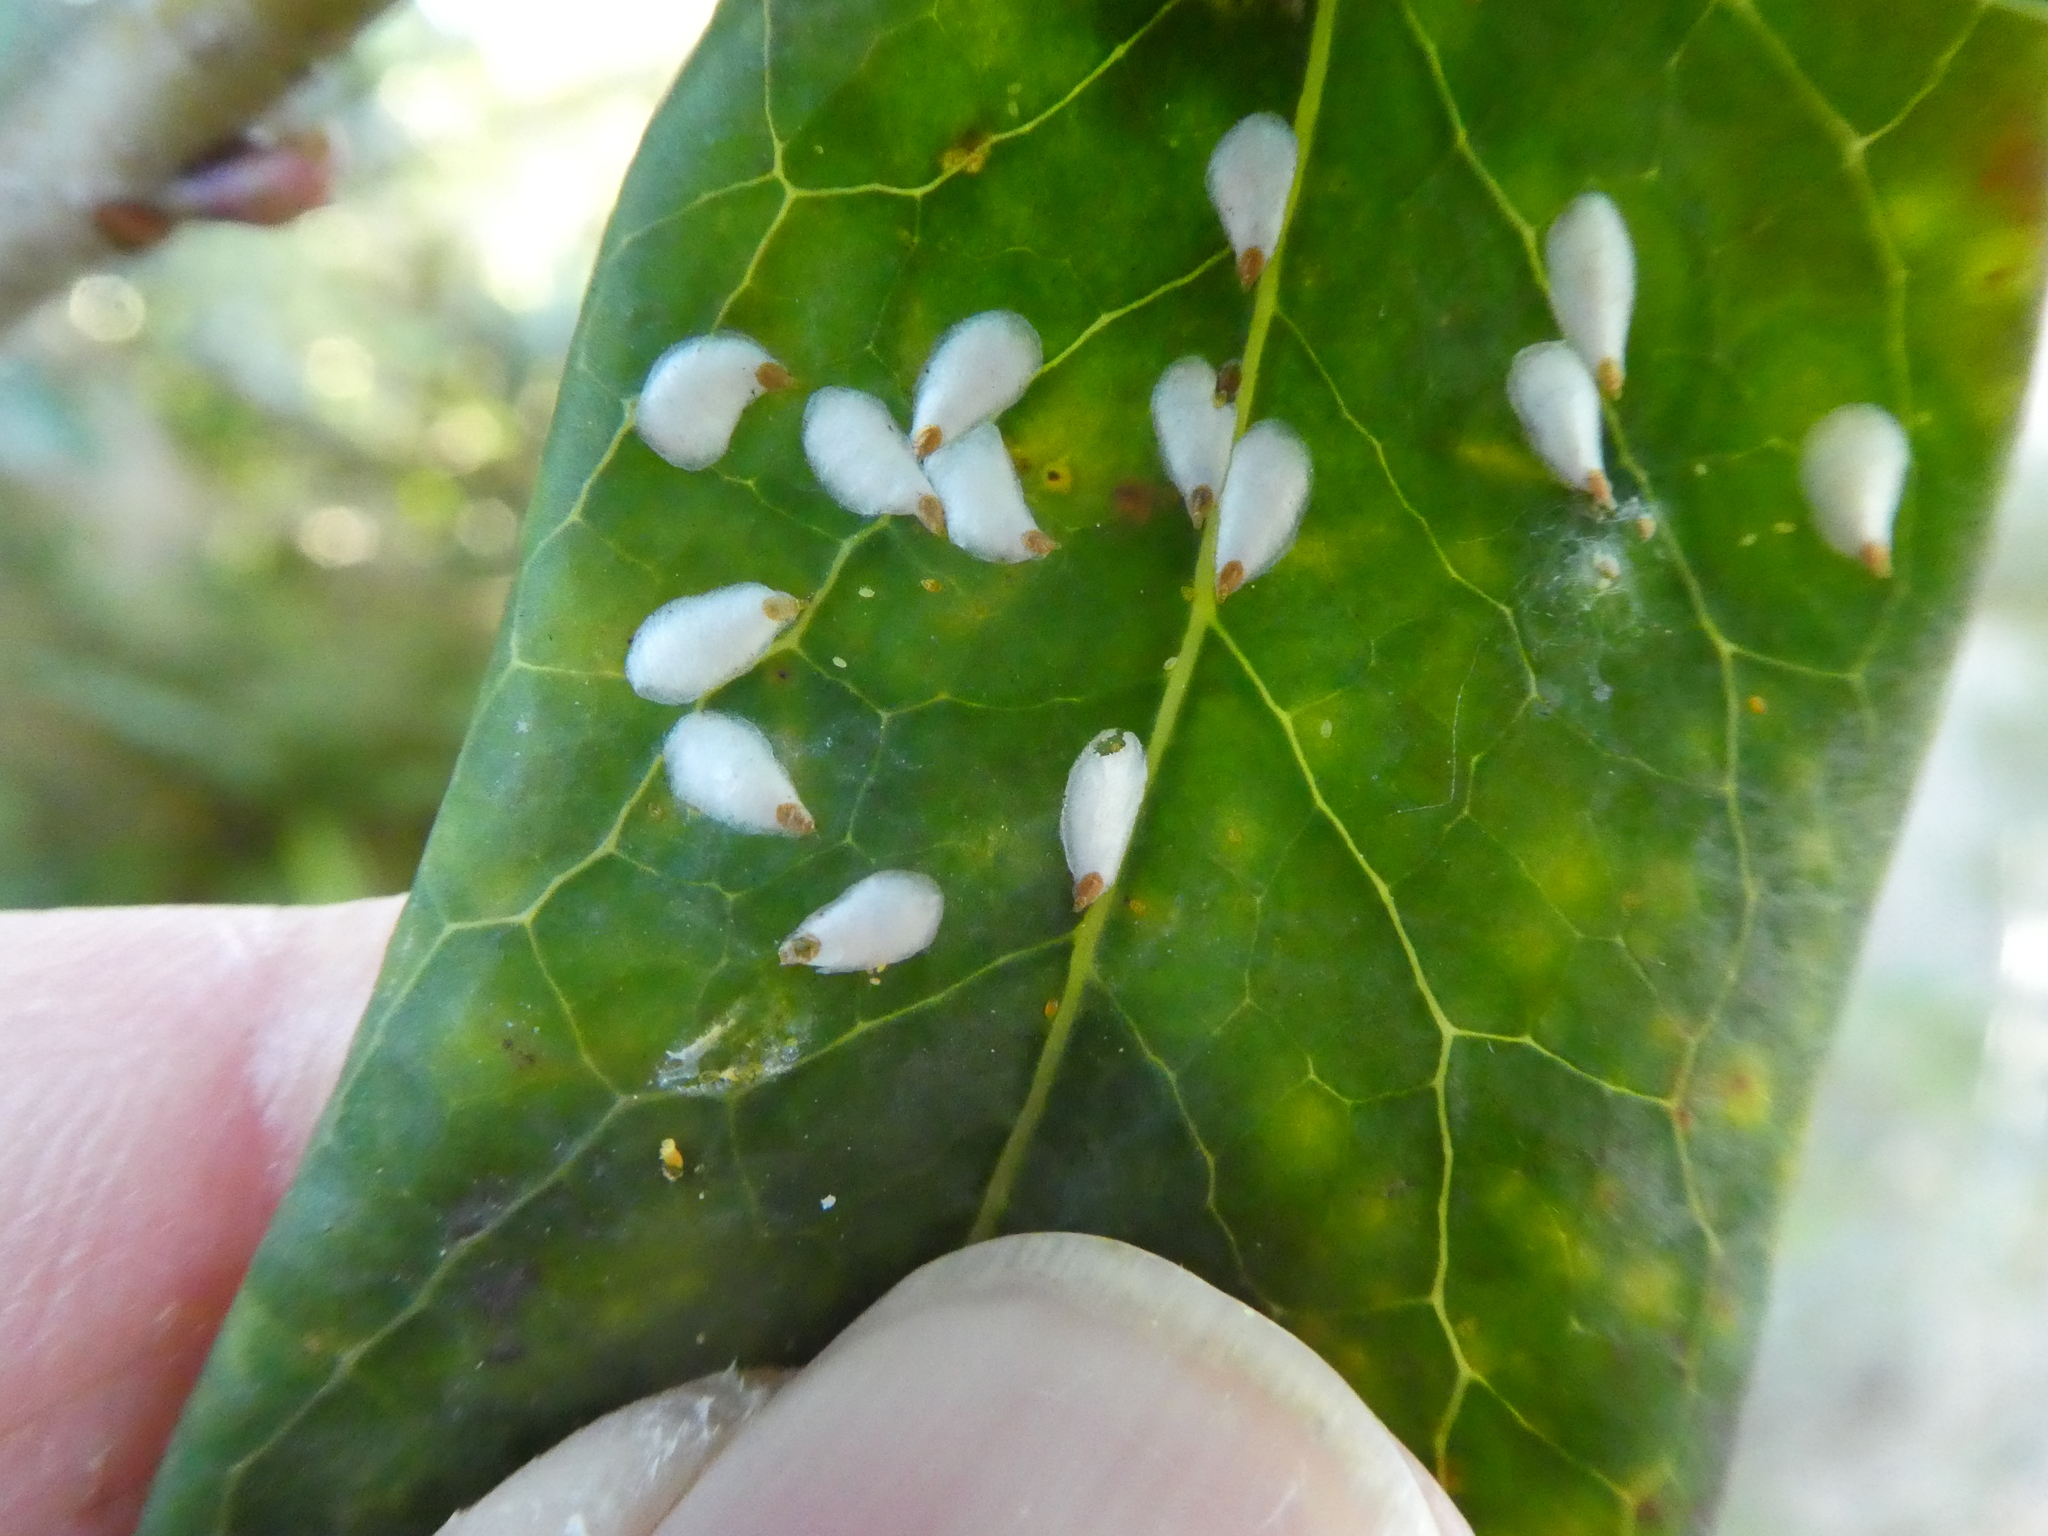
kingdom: Animalia
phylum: Arthropoda
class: Insecta
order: Hemiptera
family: Diaspididae
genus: Pseudaulacaspis
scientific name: Pseudaulacaspis brimblecombei
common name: Armored scale
